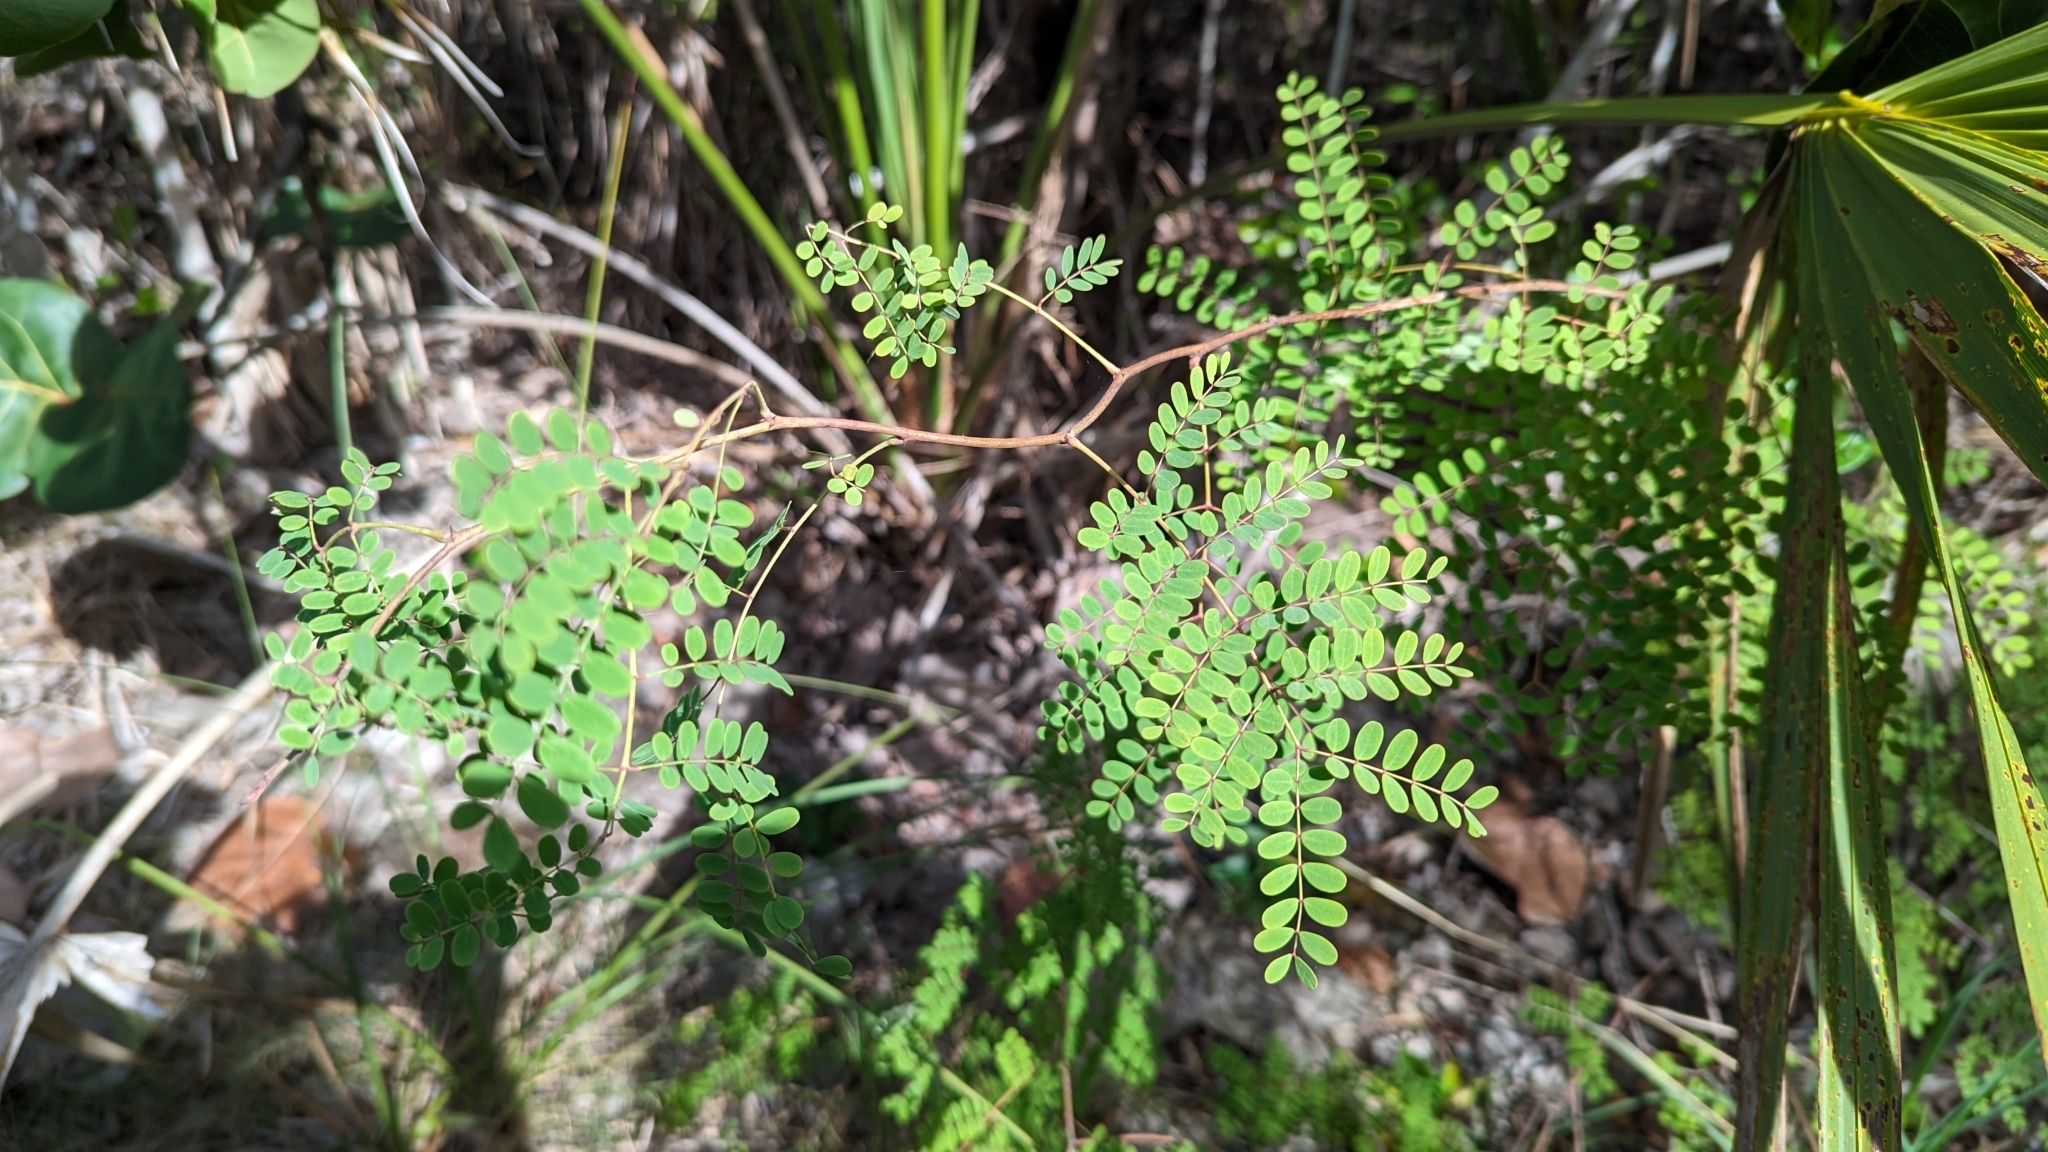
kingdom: Plantae
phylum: Tracheophyta
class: Magnoliopsida
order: Fabales
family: Fabaceae
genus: Denisophytum
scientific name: Denisophytum pauciflorum
